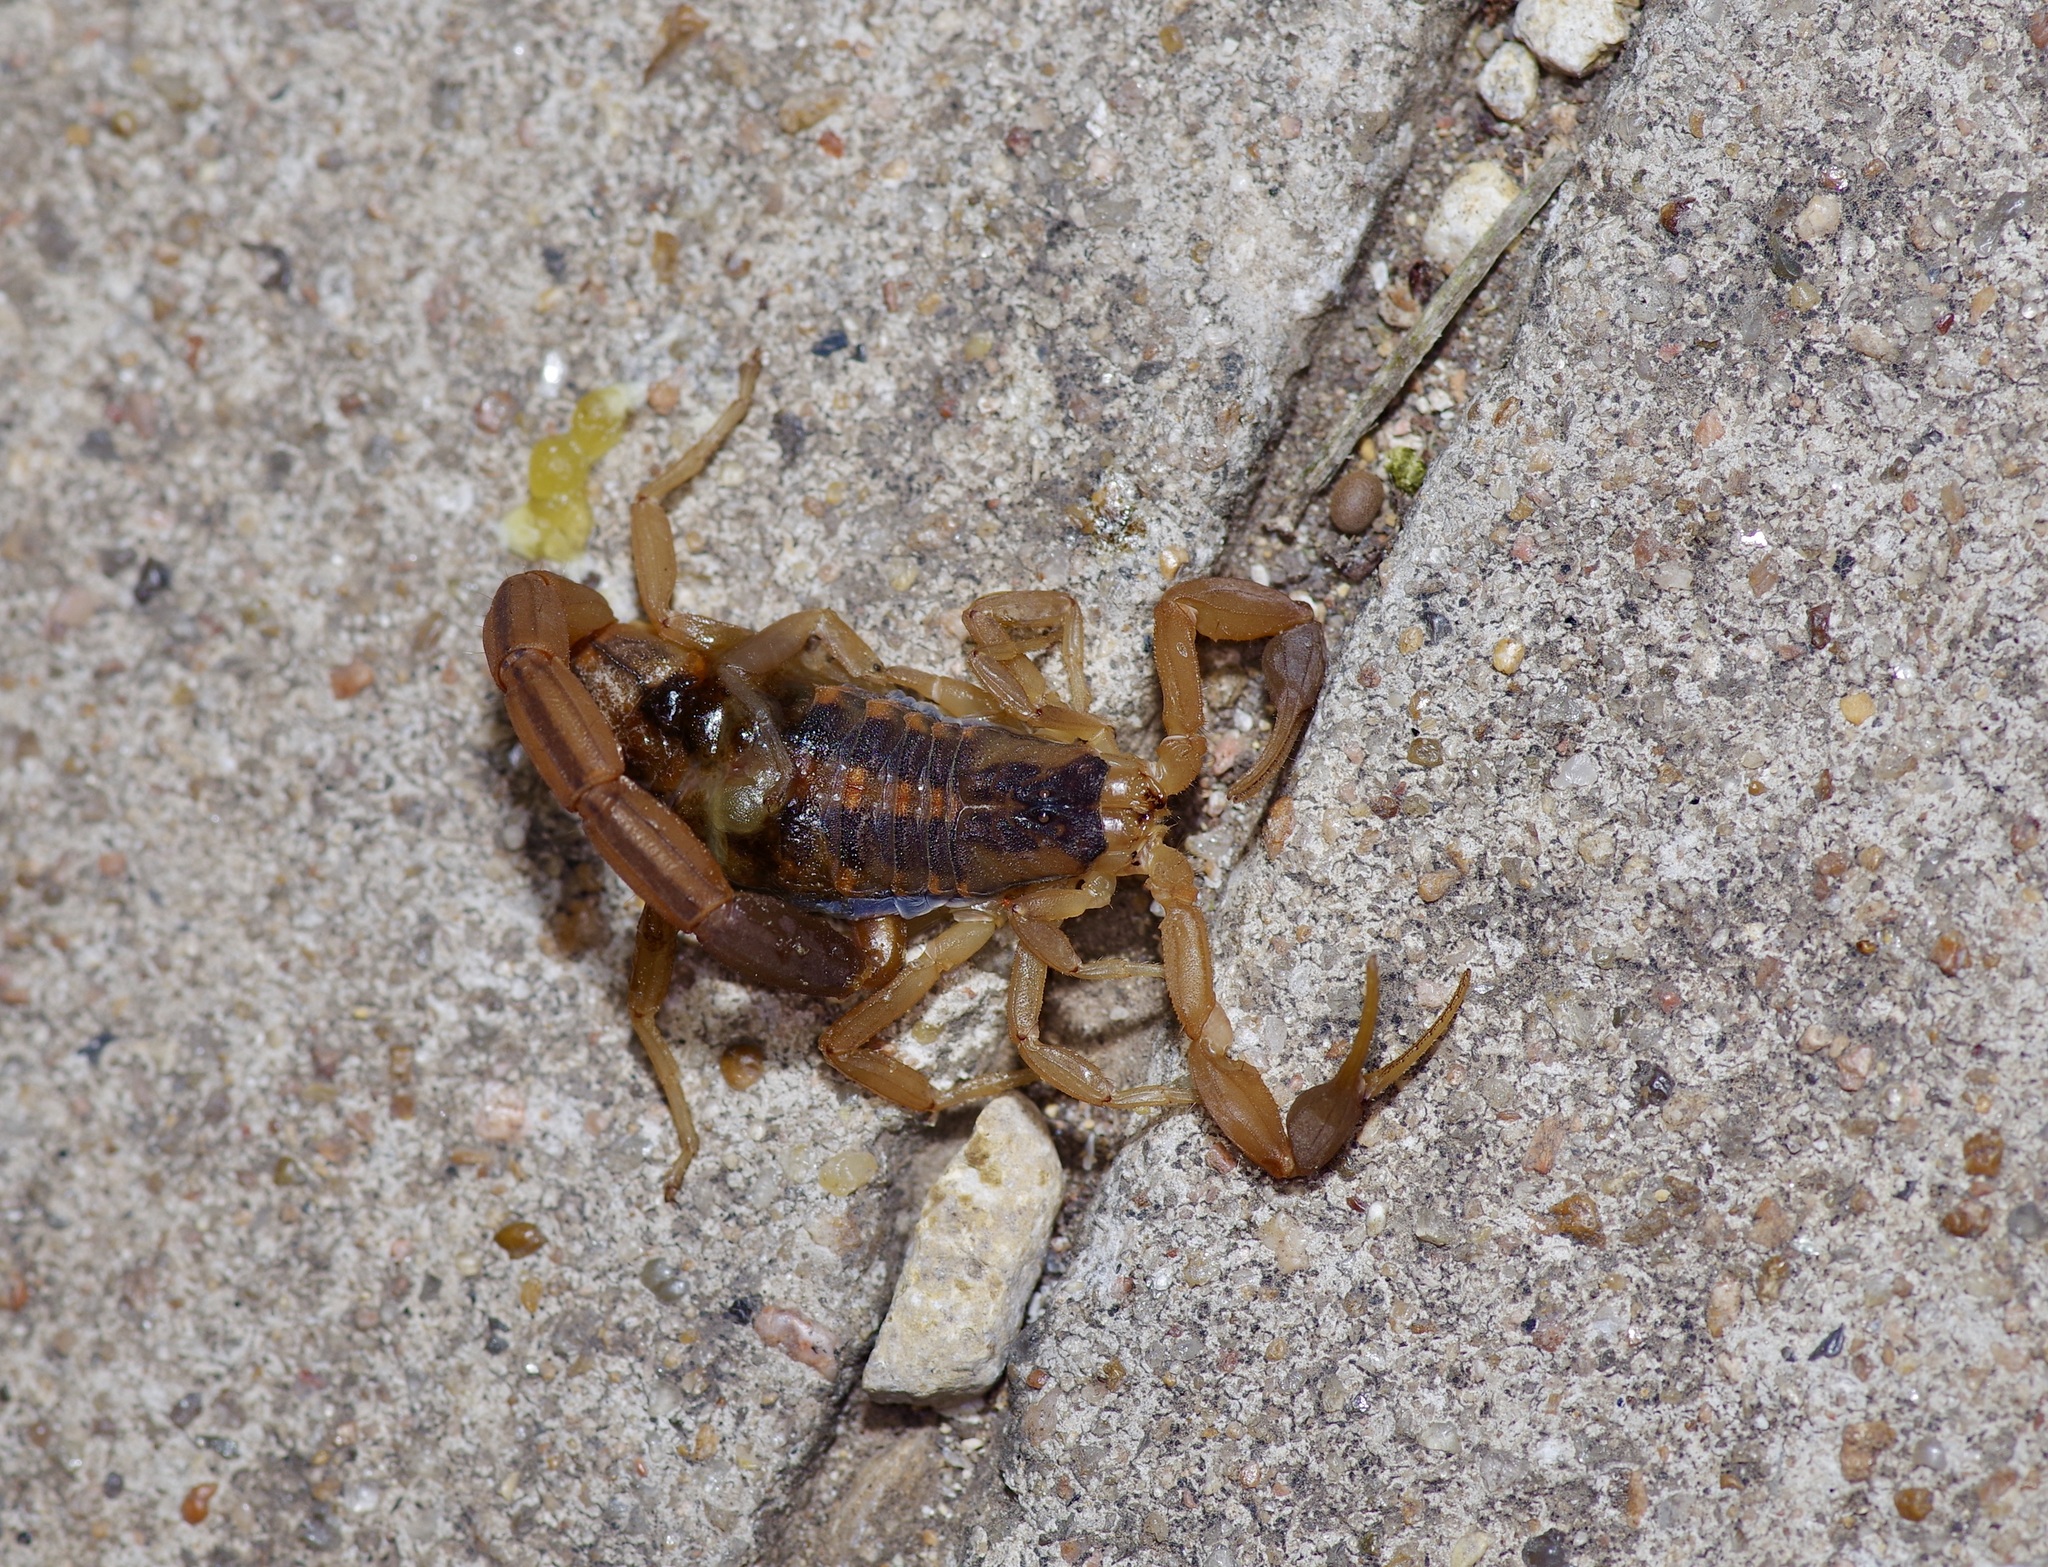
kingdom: Animalia
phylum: Arthropoda
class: Arachnida
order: Scorpiones
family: Buthidae
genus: Centruroides
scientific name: Centruroides vittatus
